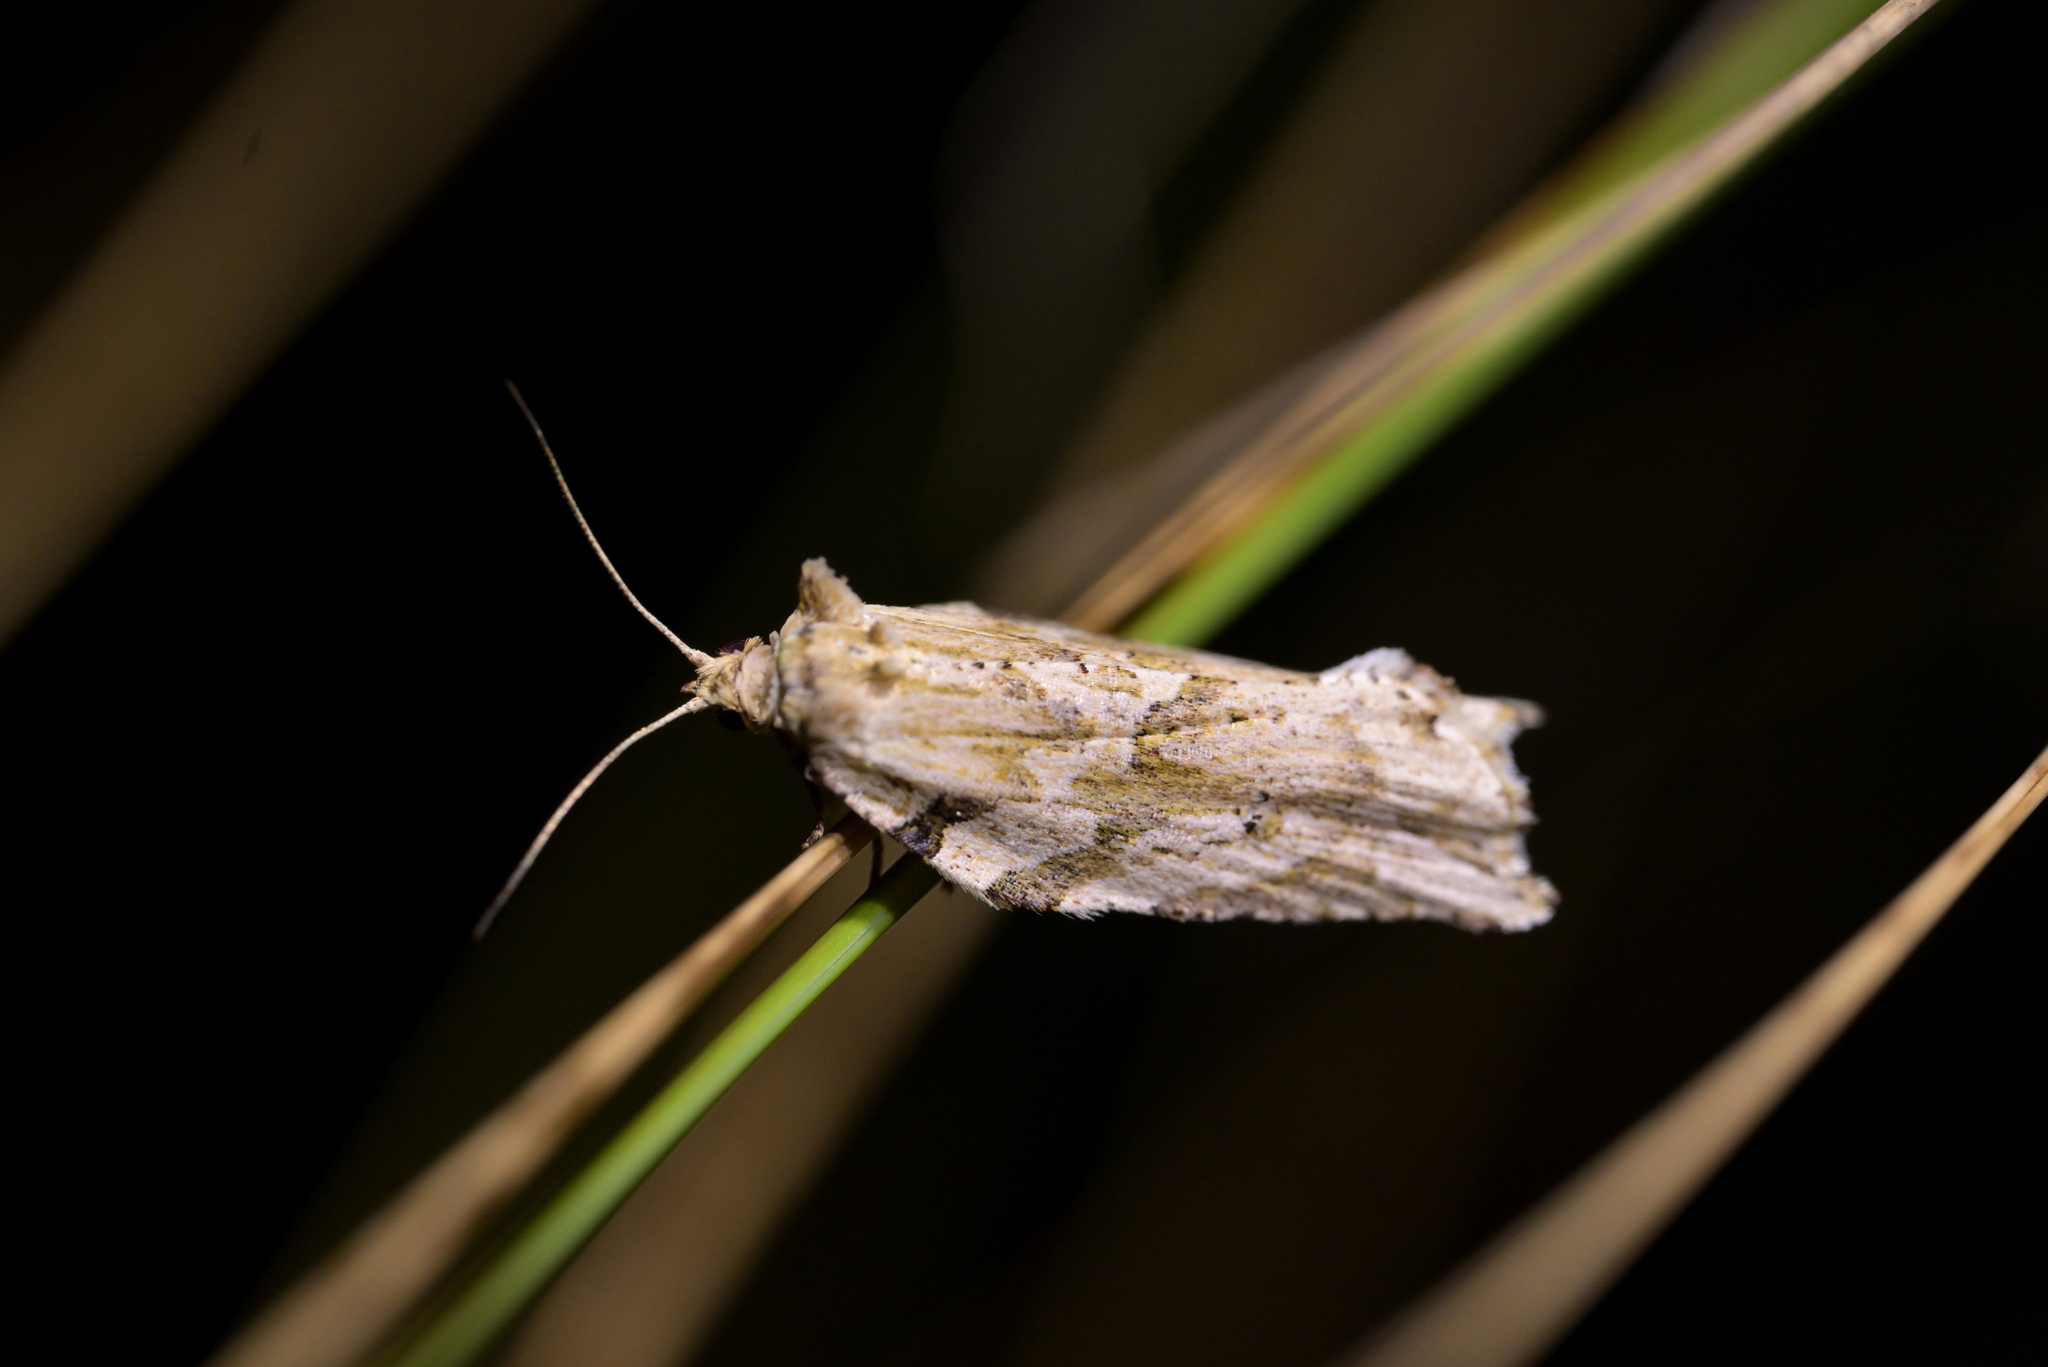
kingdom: Animalia
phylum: Arthropoda
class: Insecta
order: Lepidoptera
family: Tortricidae
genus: Epalxiphora
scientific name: Epalxiphora axenana
